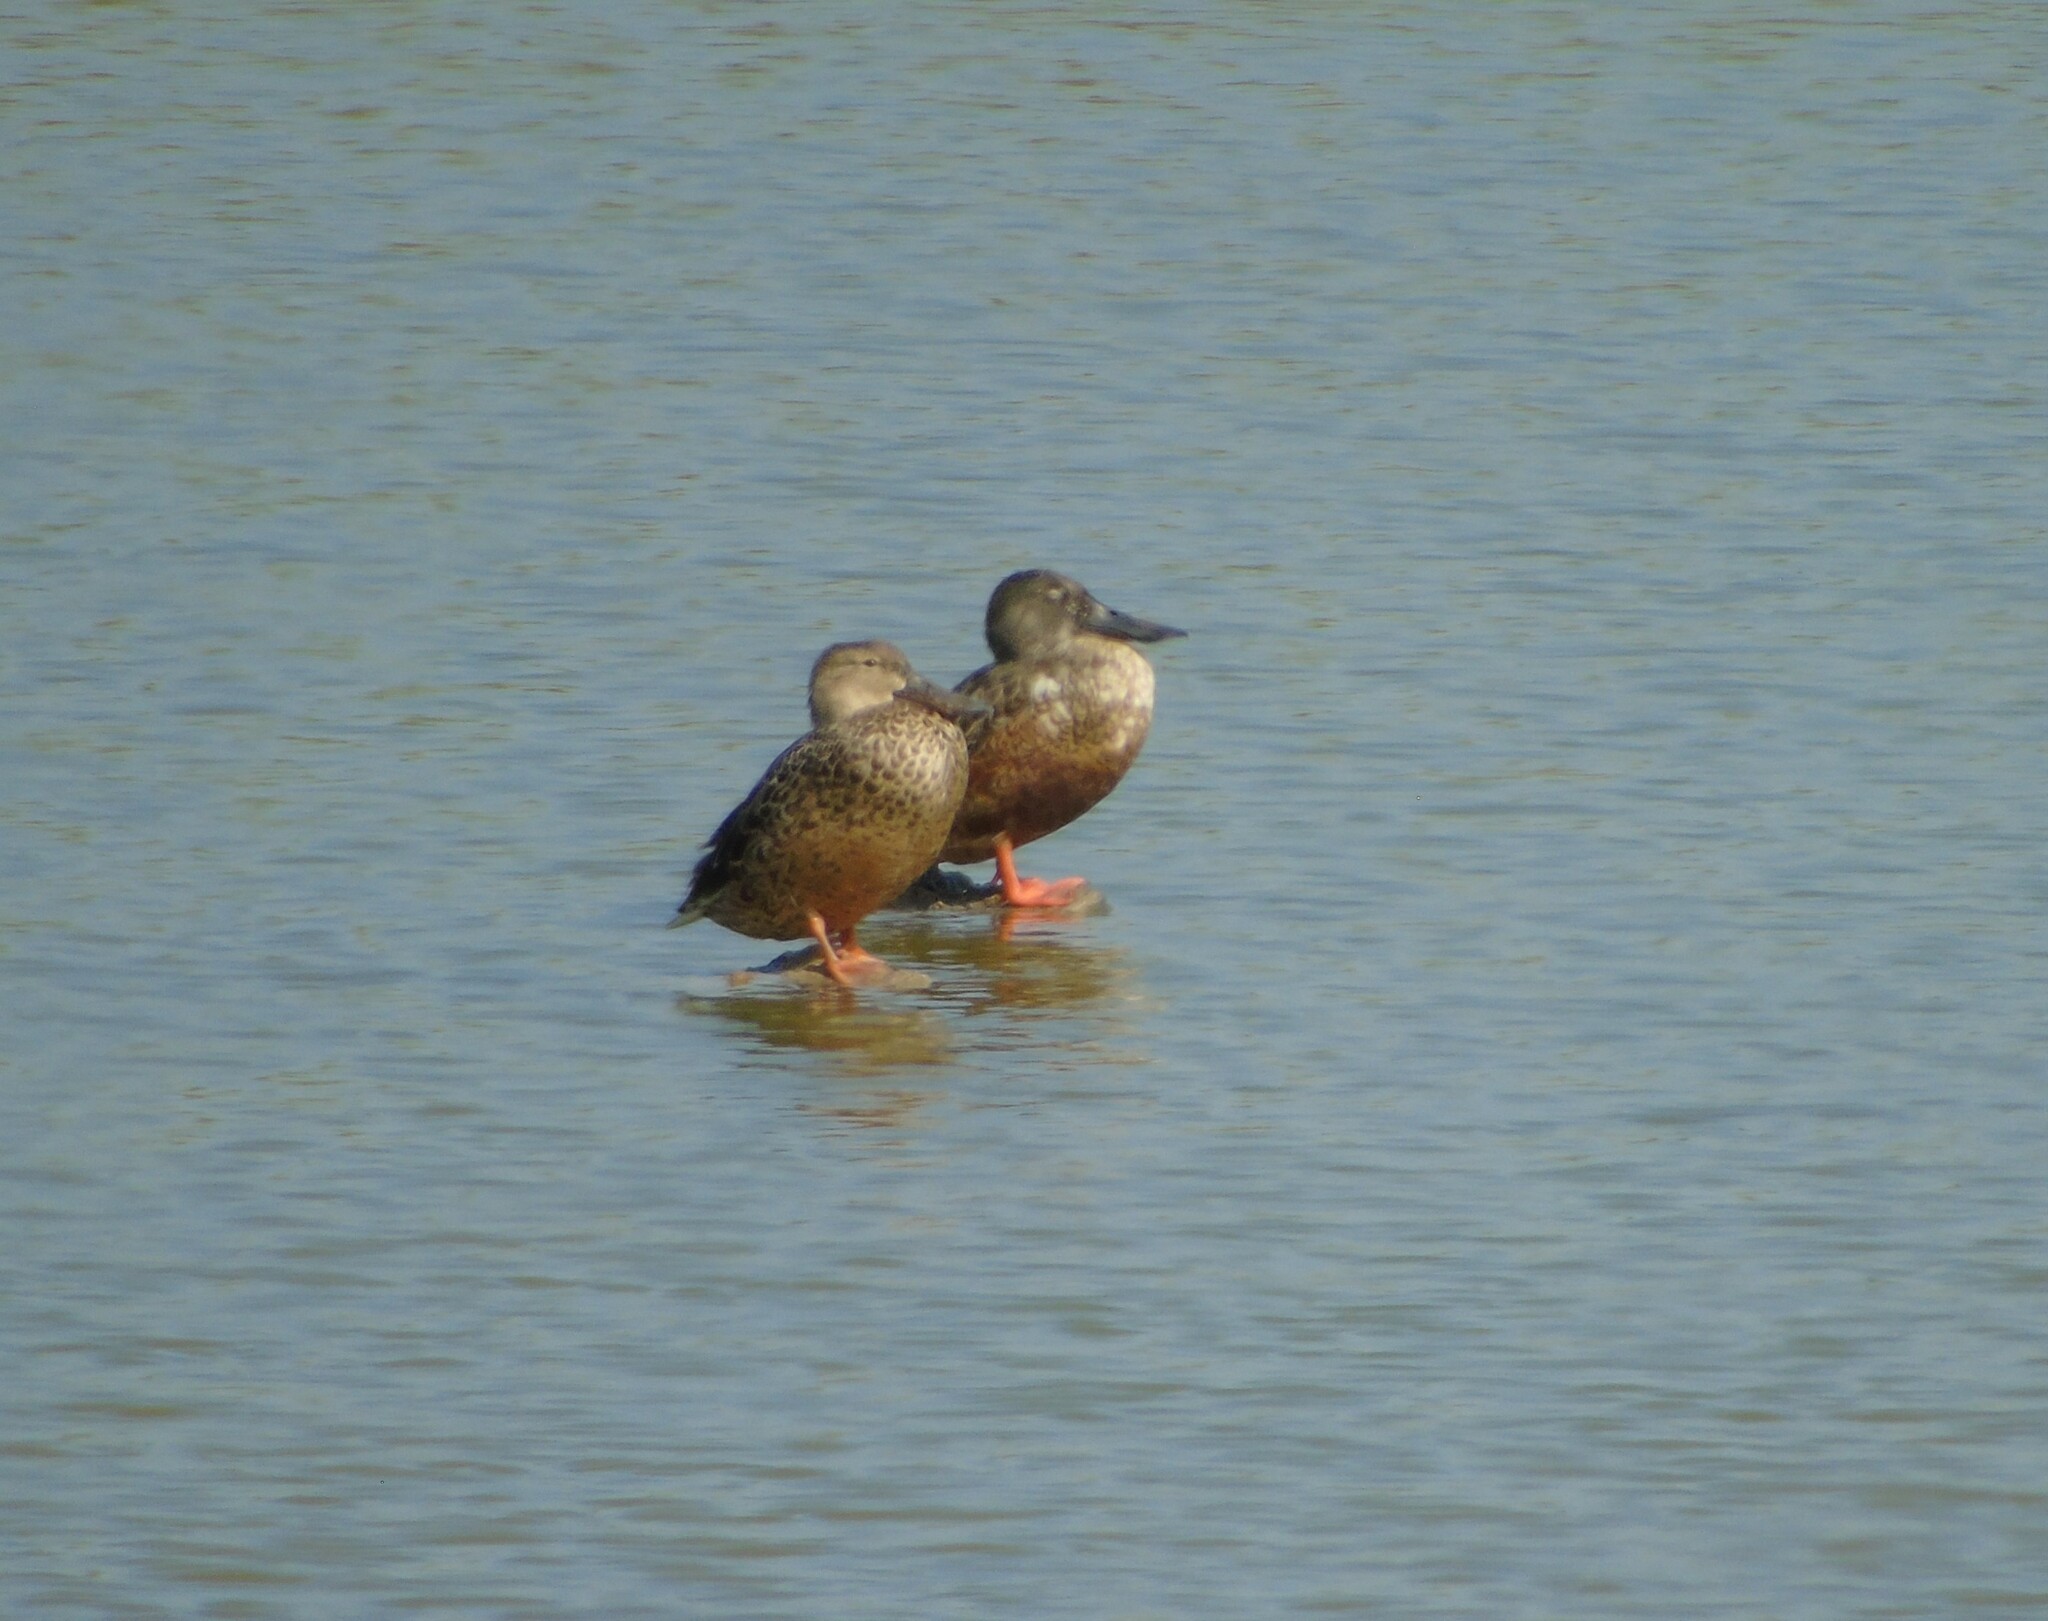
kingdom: Animalia
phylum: Chordata
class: Aves
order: Anseriformes
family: Anatidae
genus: Spatula
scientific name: Spatula clypeata
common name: Northern shoveler
